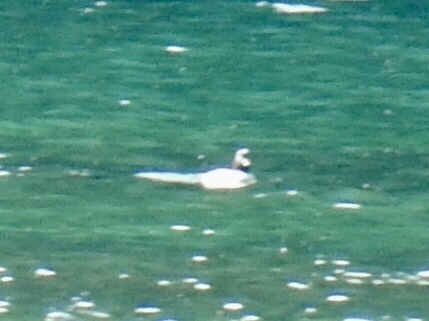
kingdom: Animalia
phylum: Chordata
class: Aves
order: Anseriformes
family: Anatidae
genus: Bucephala
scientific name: Bucephala islandica
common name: Barrow's goldeneye
